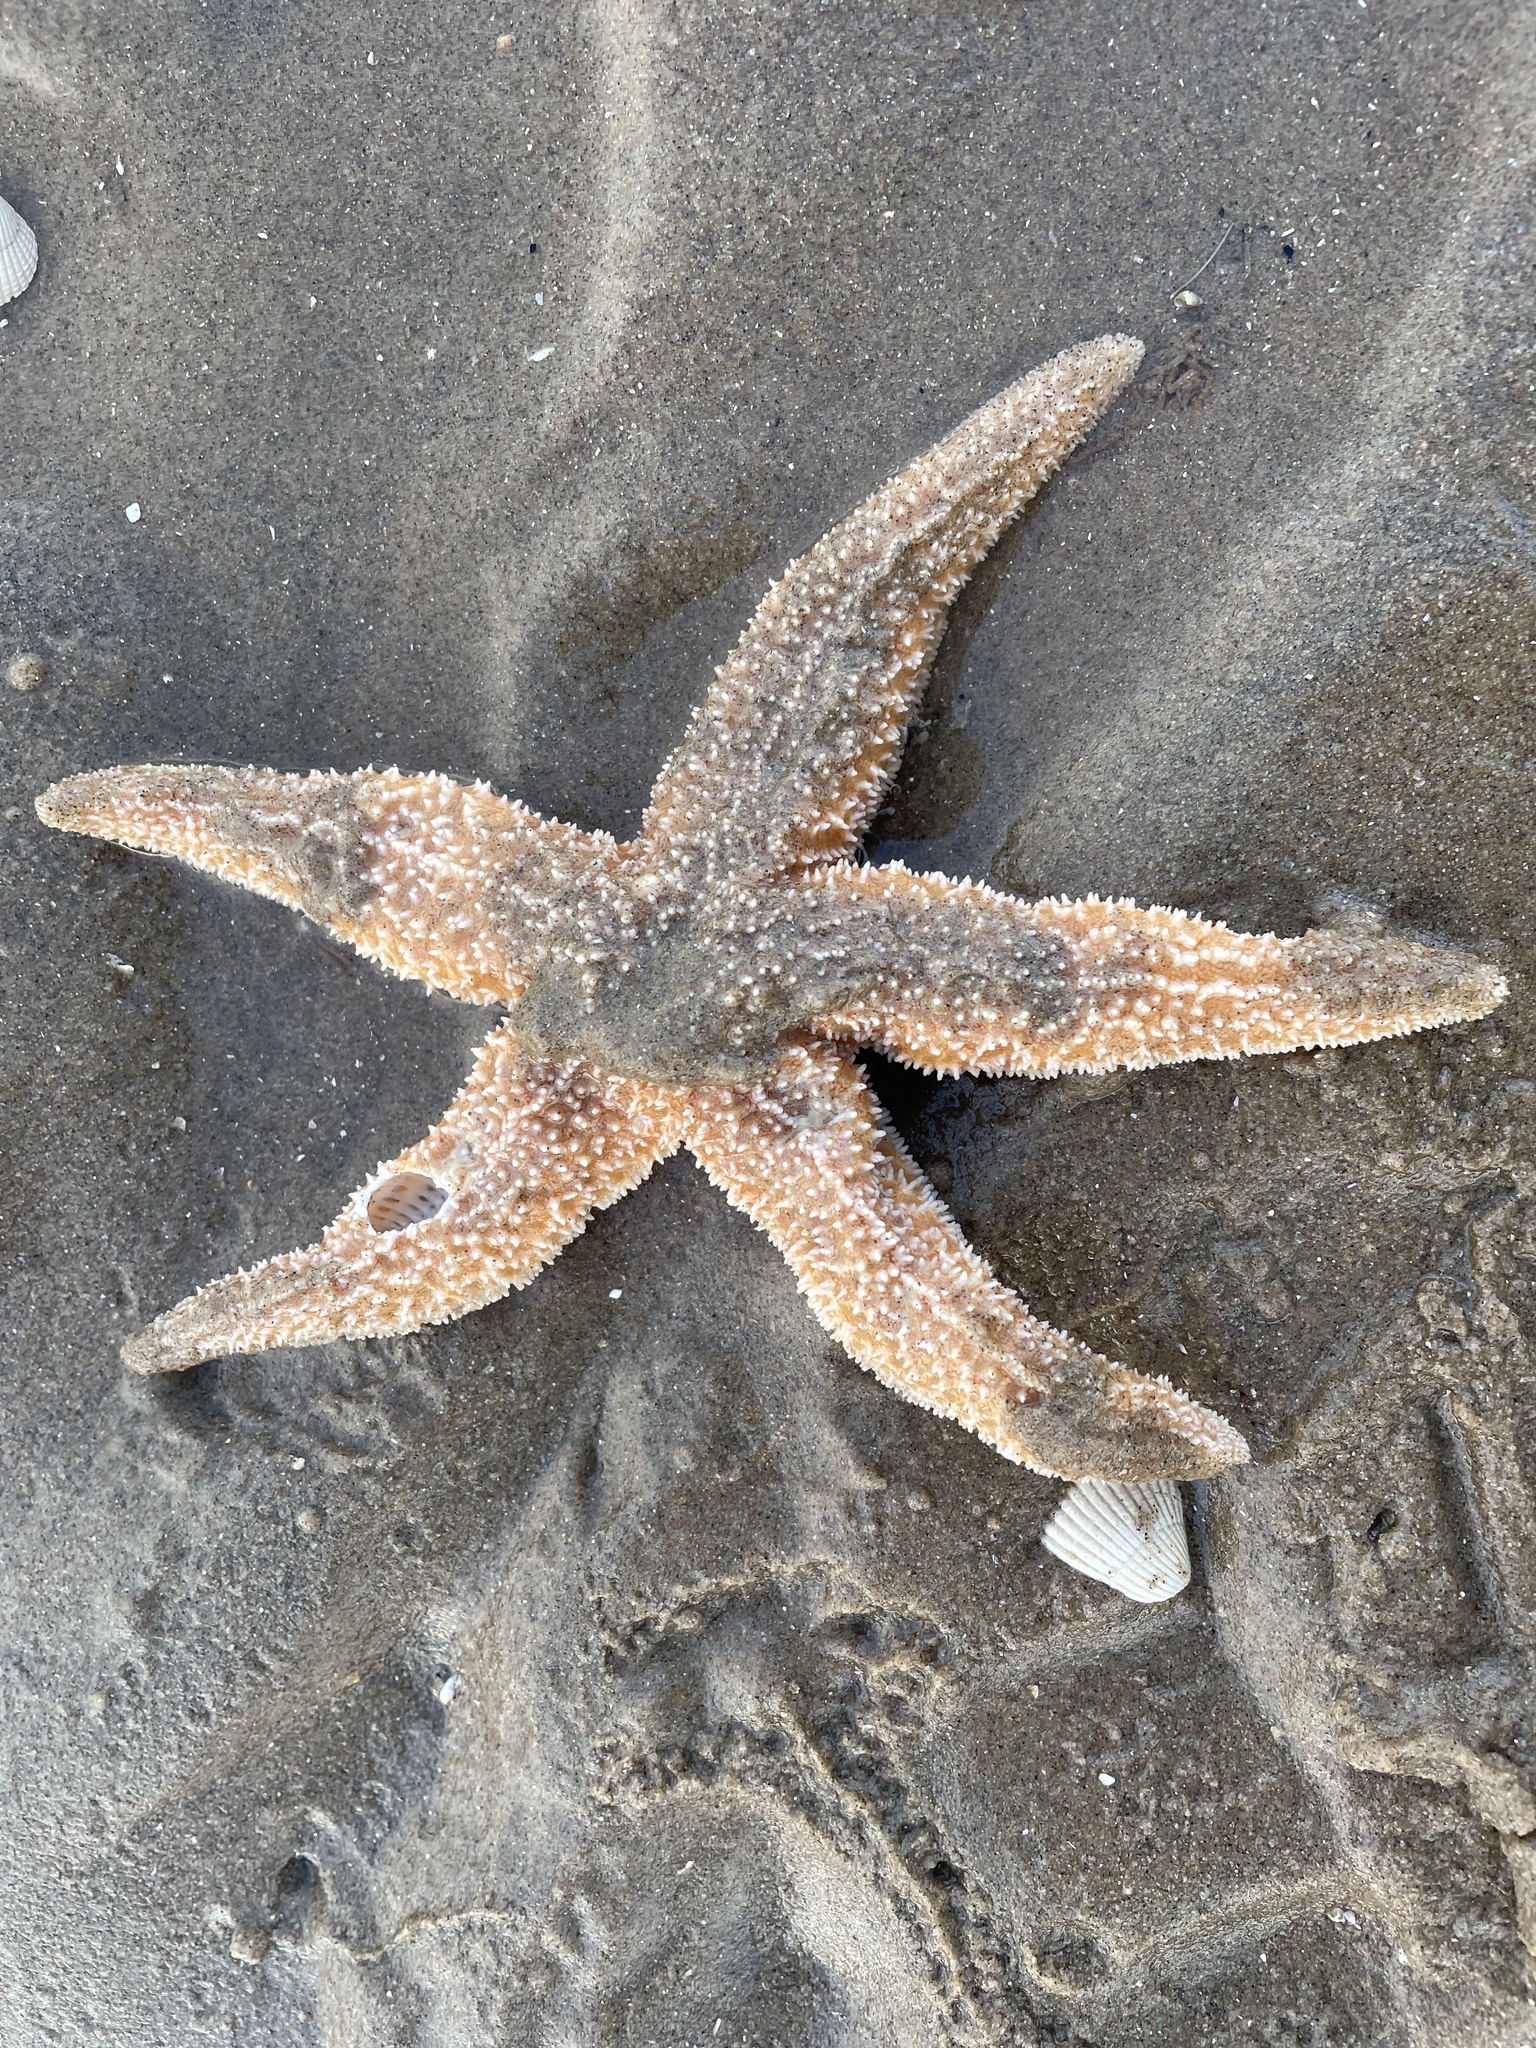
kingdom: Animalia
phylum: Echinodermata
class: Asteroidea
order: Forcipulatida
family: Asteriidae
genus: Asterias
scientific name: Asterias rubens
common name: Common starfish
